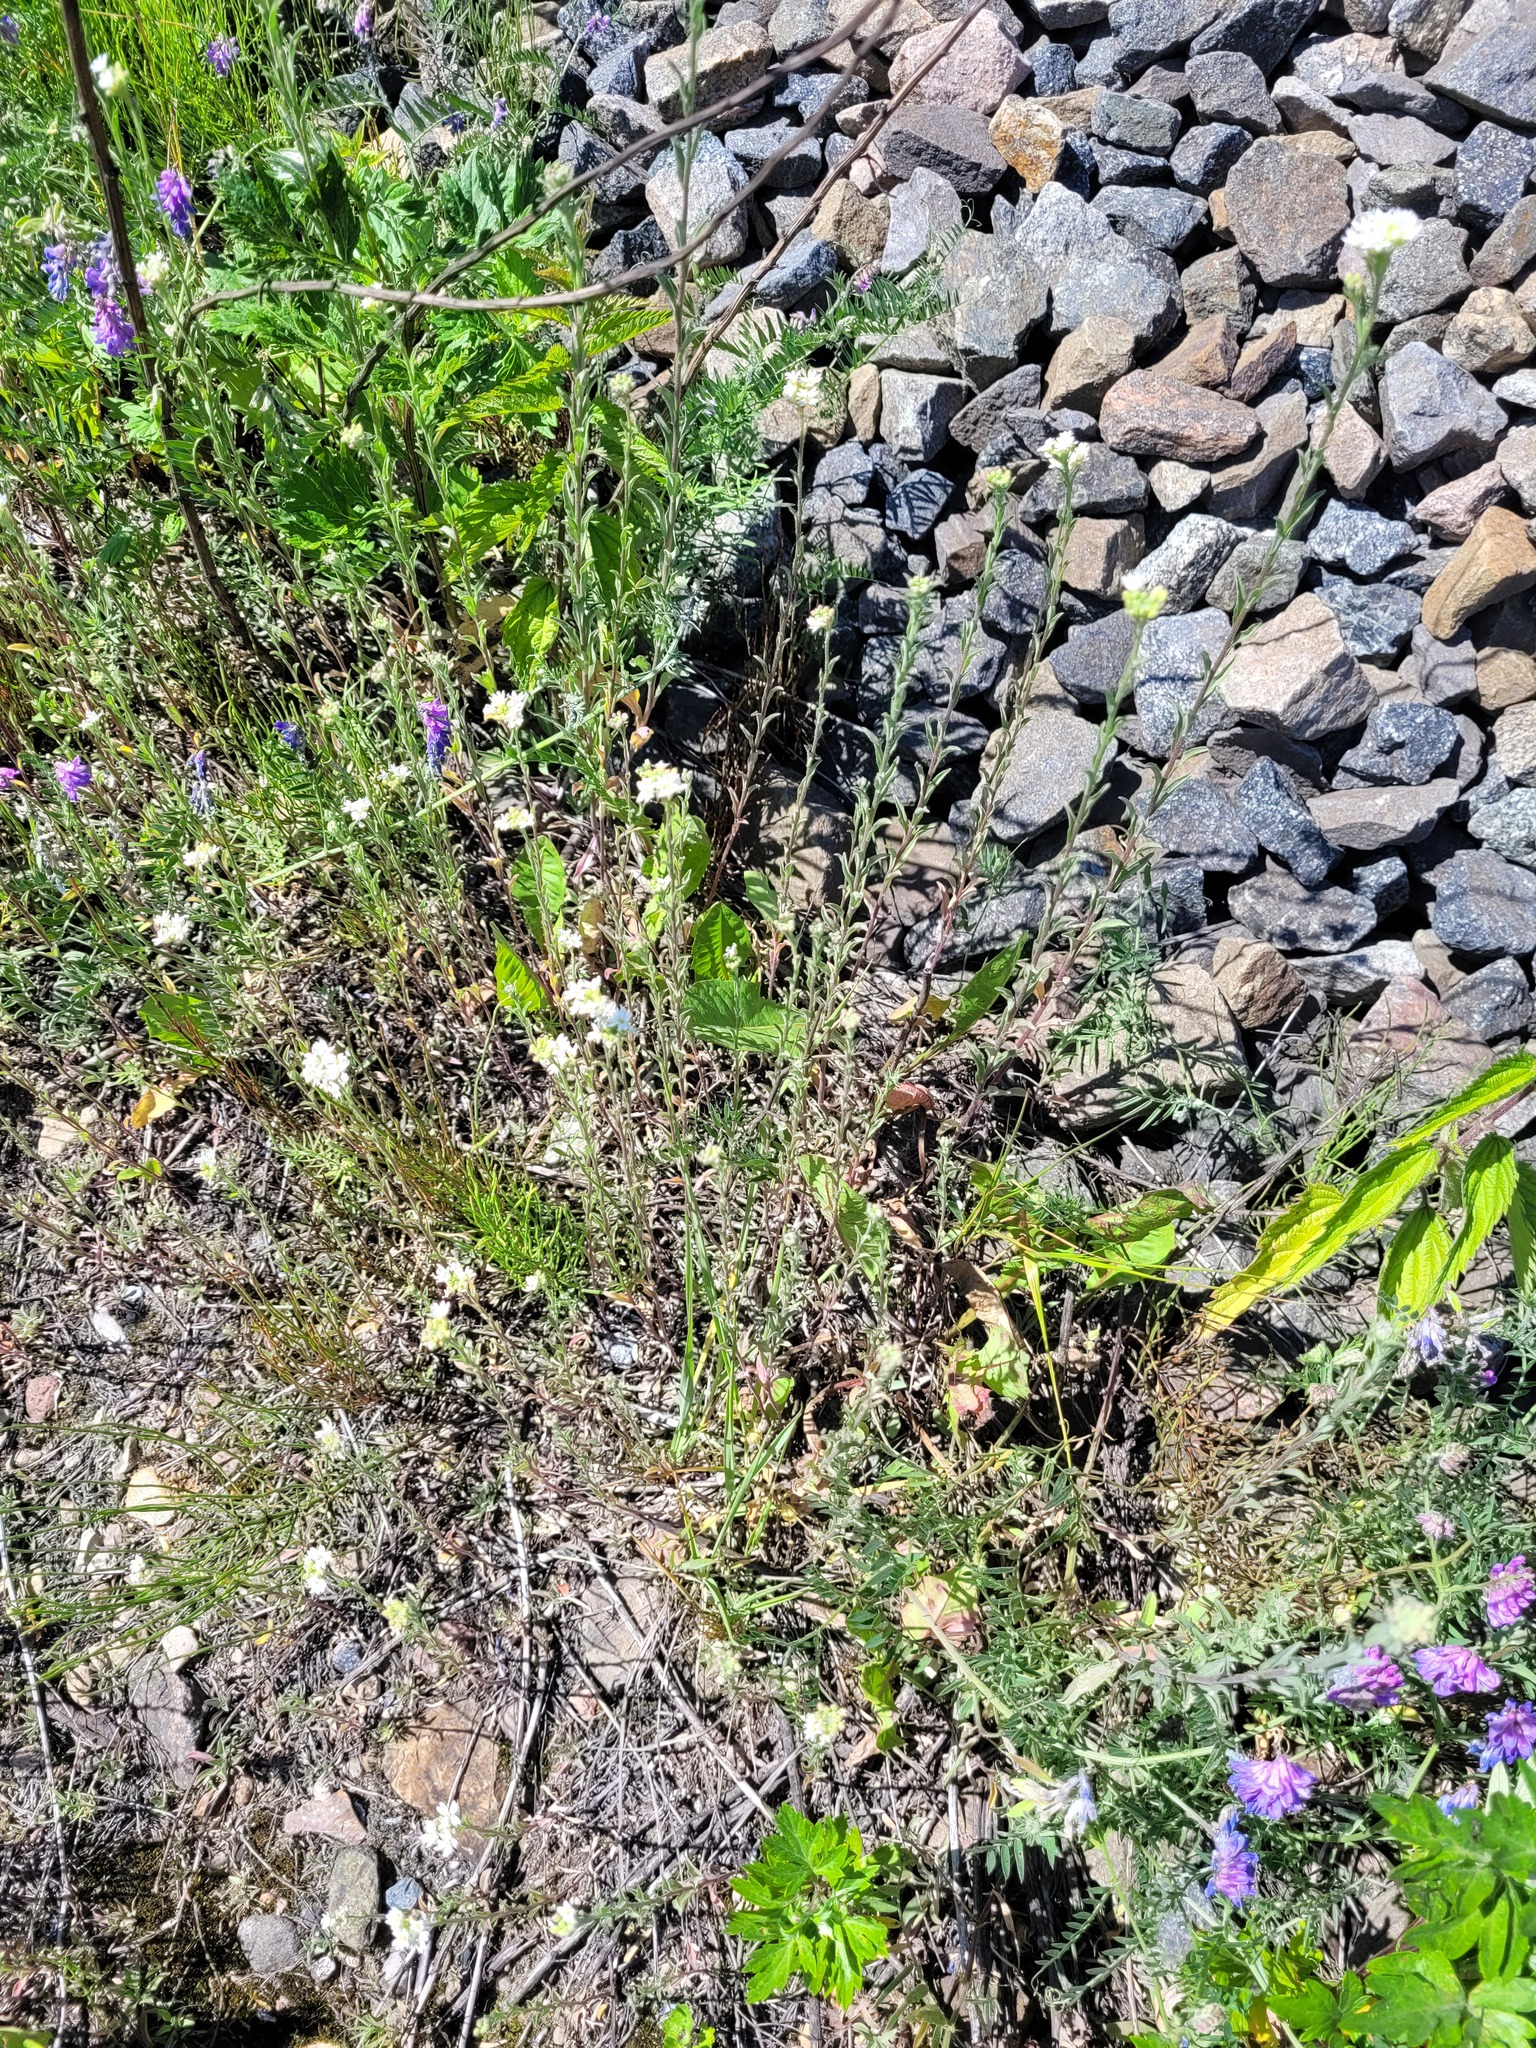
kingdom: Plantae
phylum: Tracheophyta
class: Magnoliopsida
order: Brassicales
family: Brassicaceae
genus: Berteroa
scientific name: Berteroa incana
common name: Hoary alison
